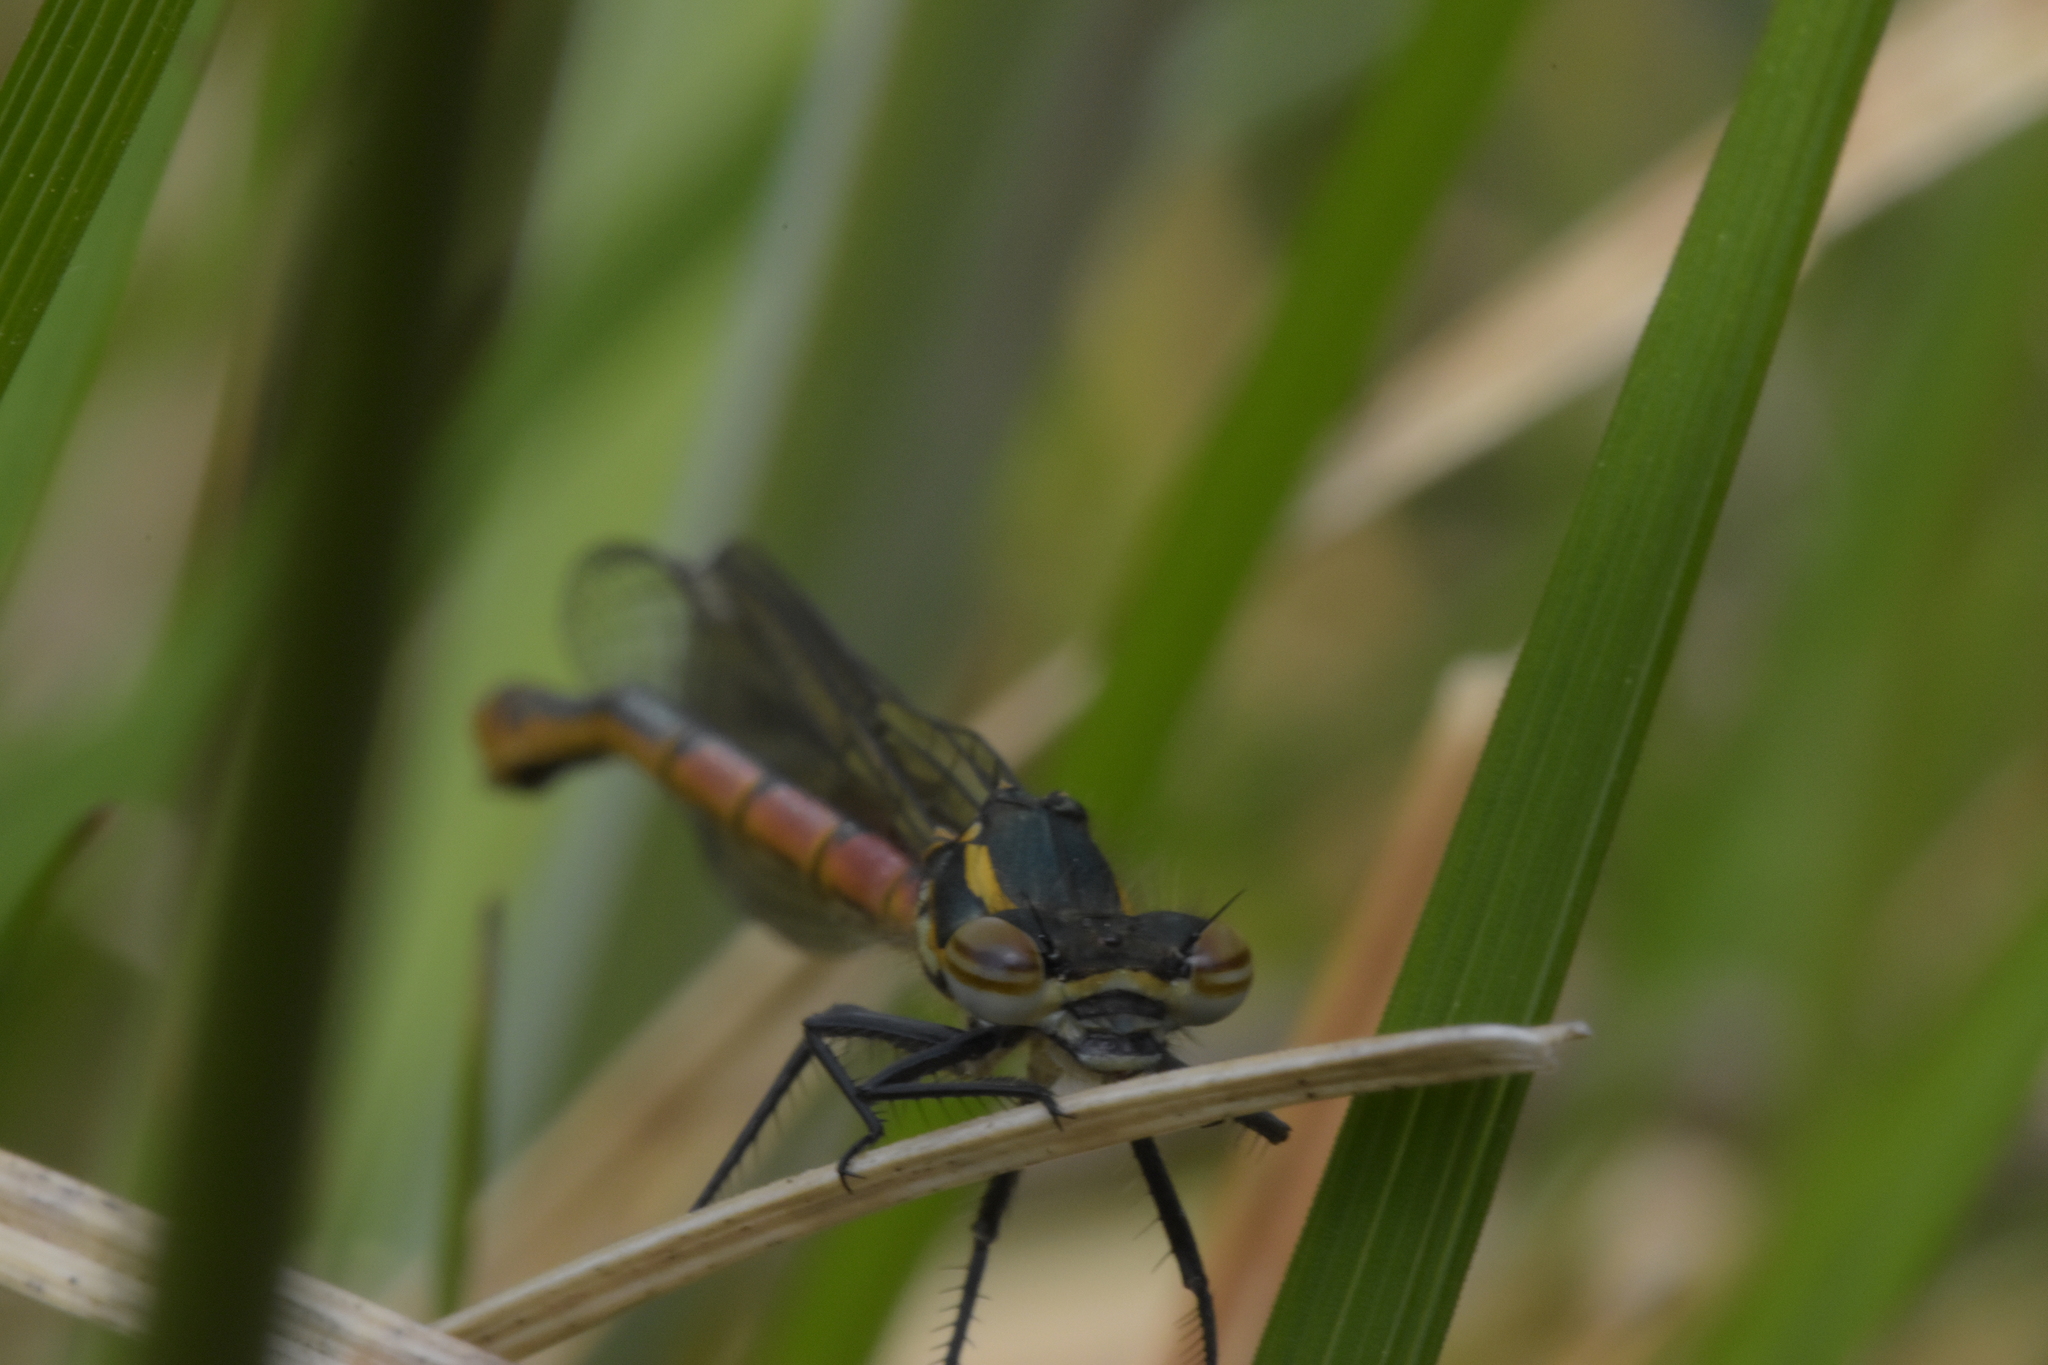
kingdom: Animalia
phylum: Arthropoda
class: Insecta
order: Odonata
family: Coenagrionidae
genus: Pyrrhosoma
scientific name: Pyrrhosoma nymphula
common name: Large red damsel
